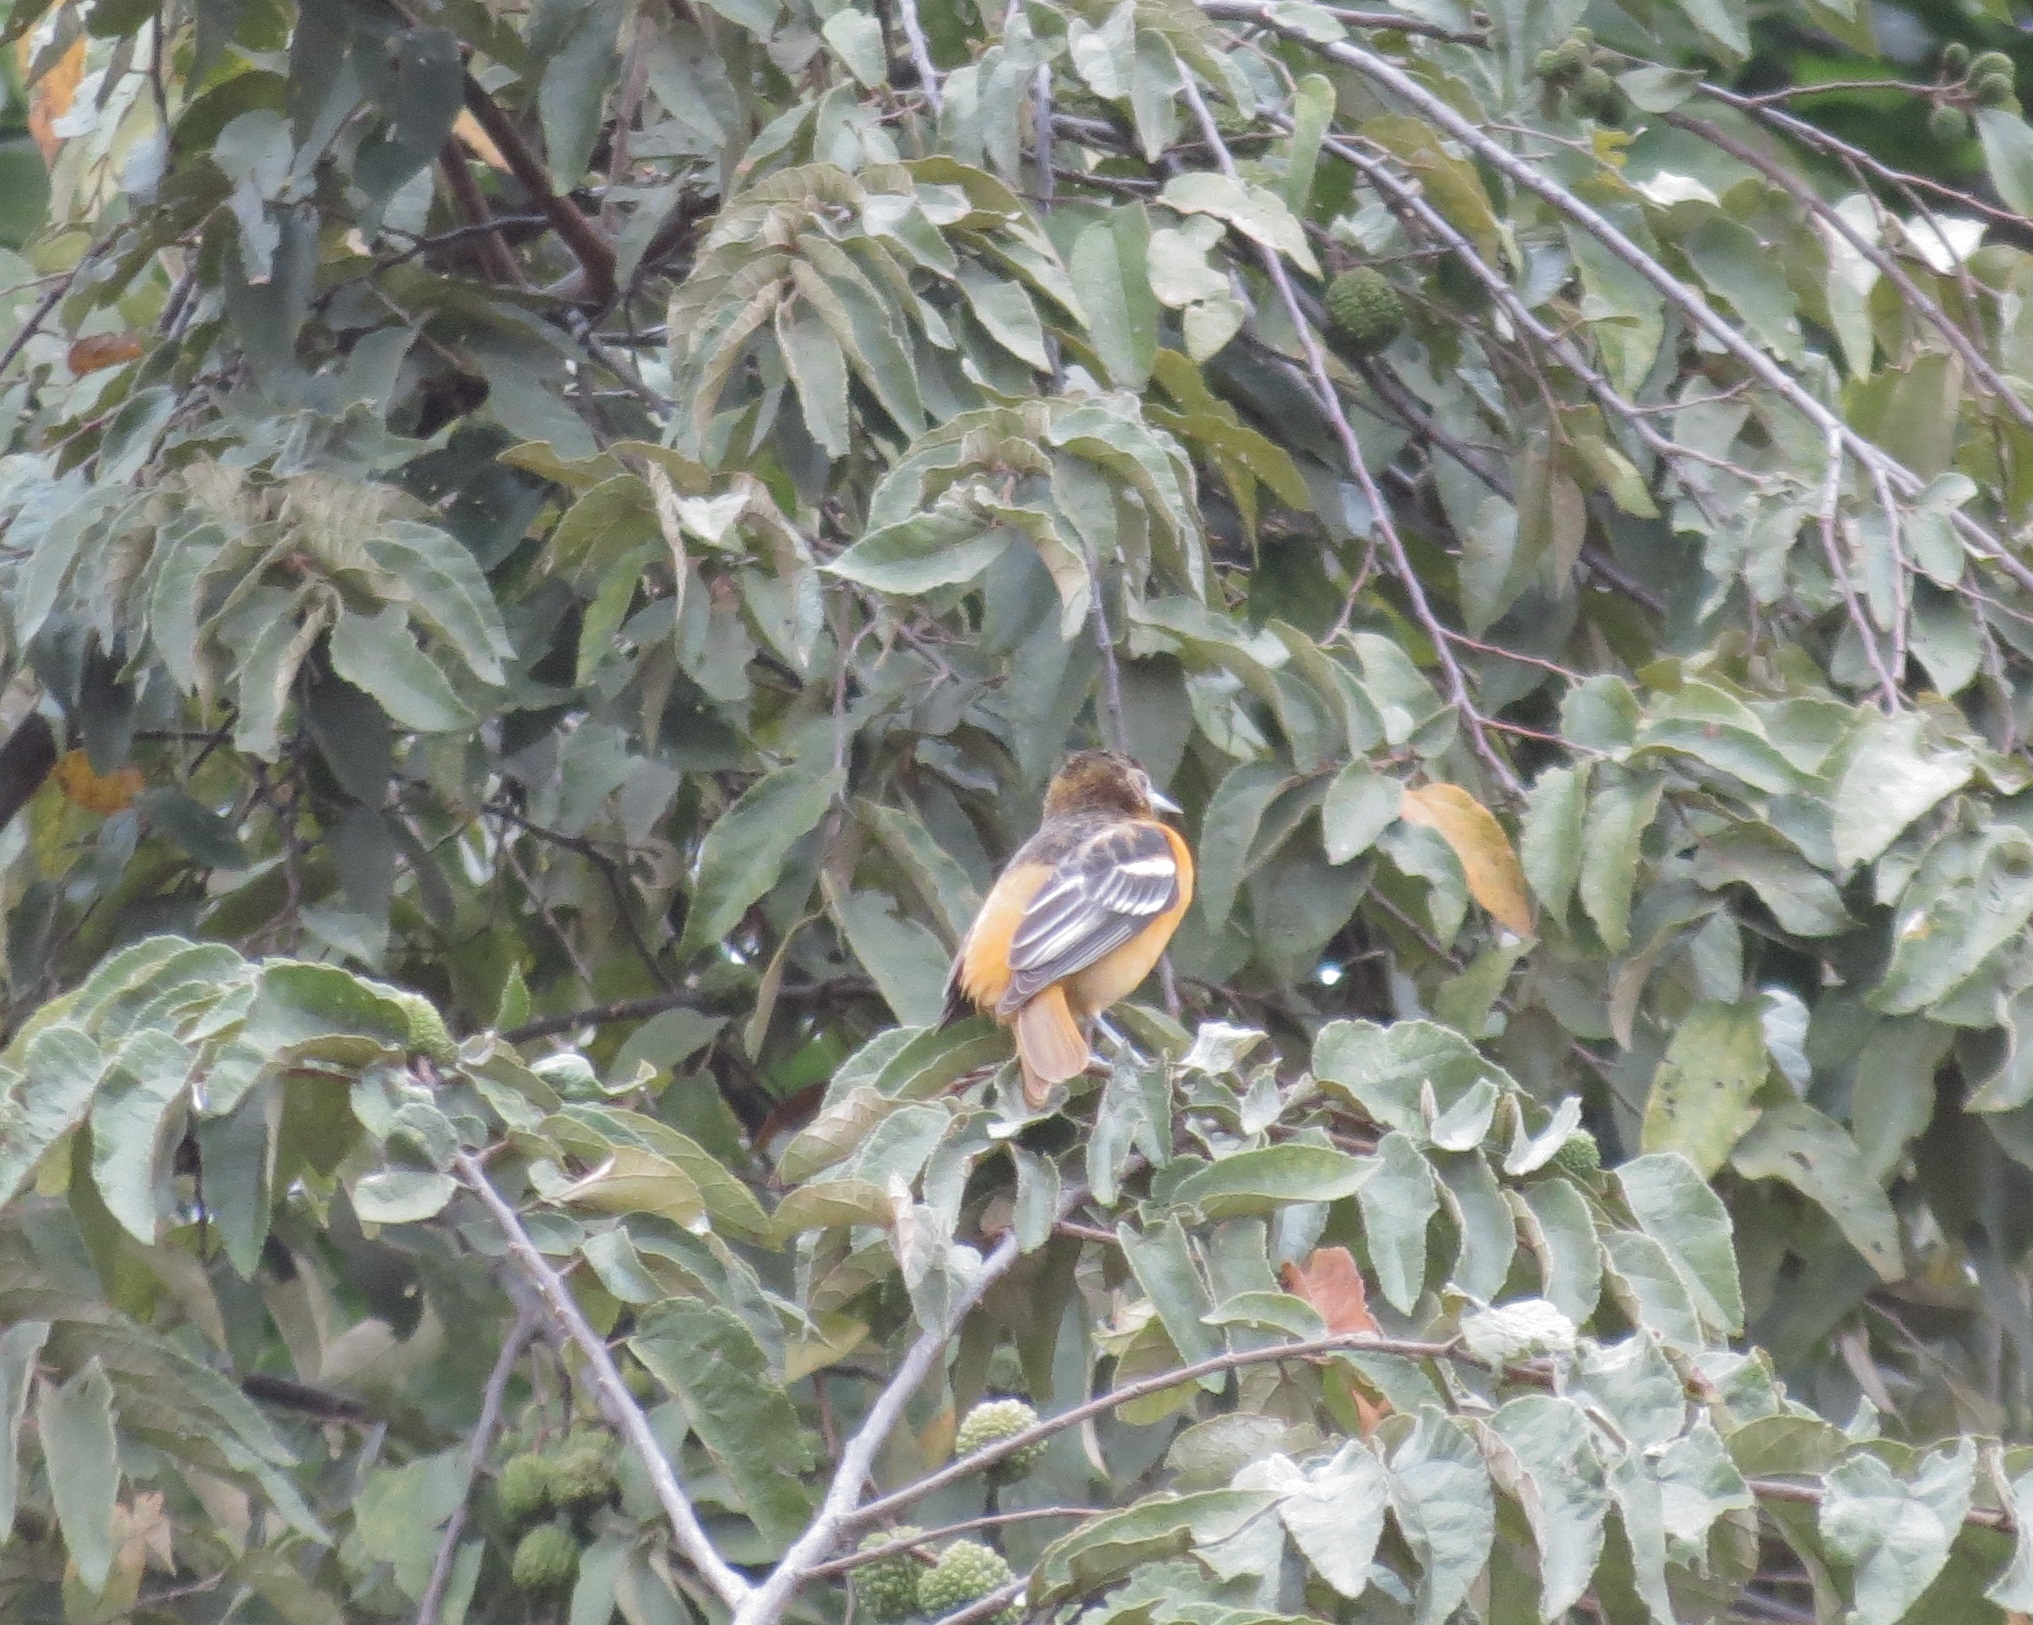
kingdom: Animalia
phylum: Chordata
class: Aves
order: Passeriformes
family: Icteridae
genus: Icterus
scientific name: Icterus galbula
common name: Baltimore oriole
